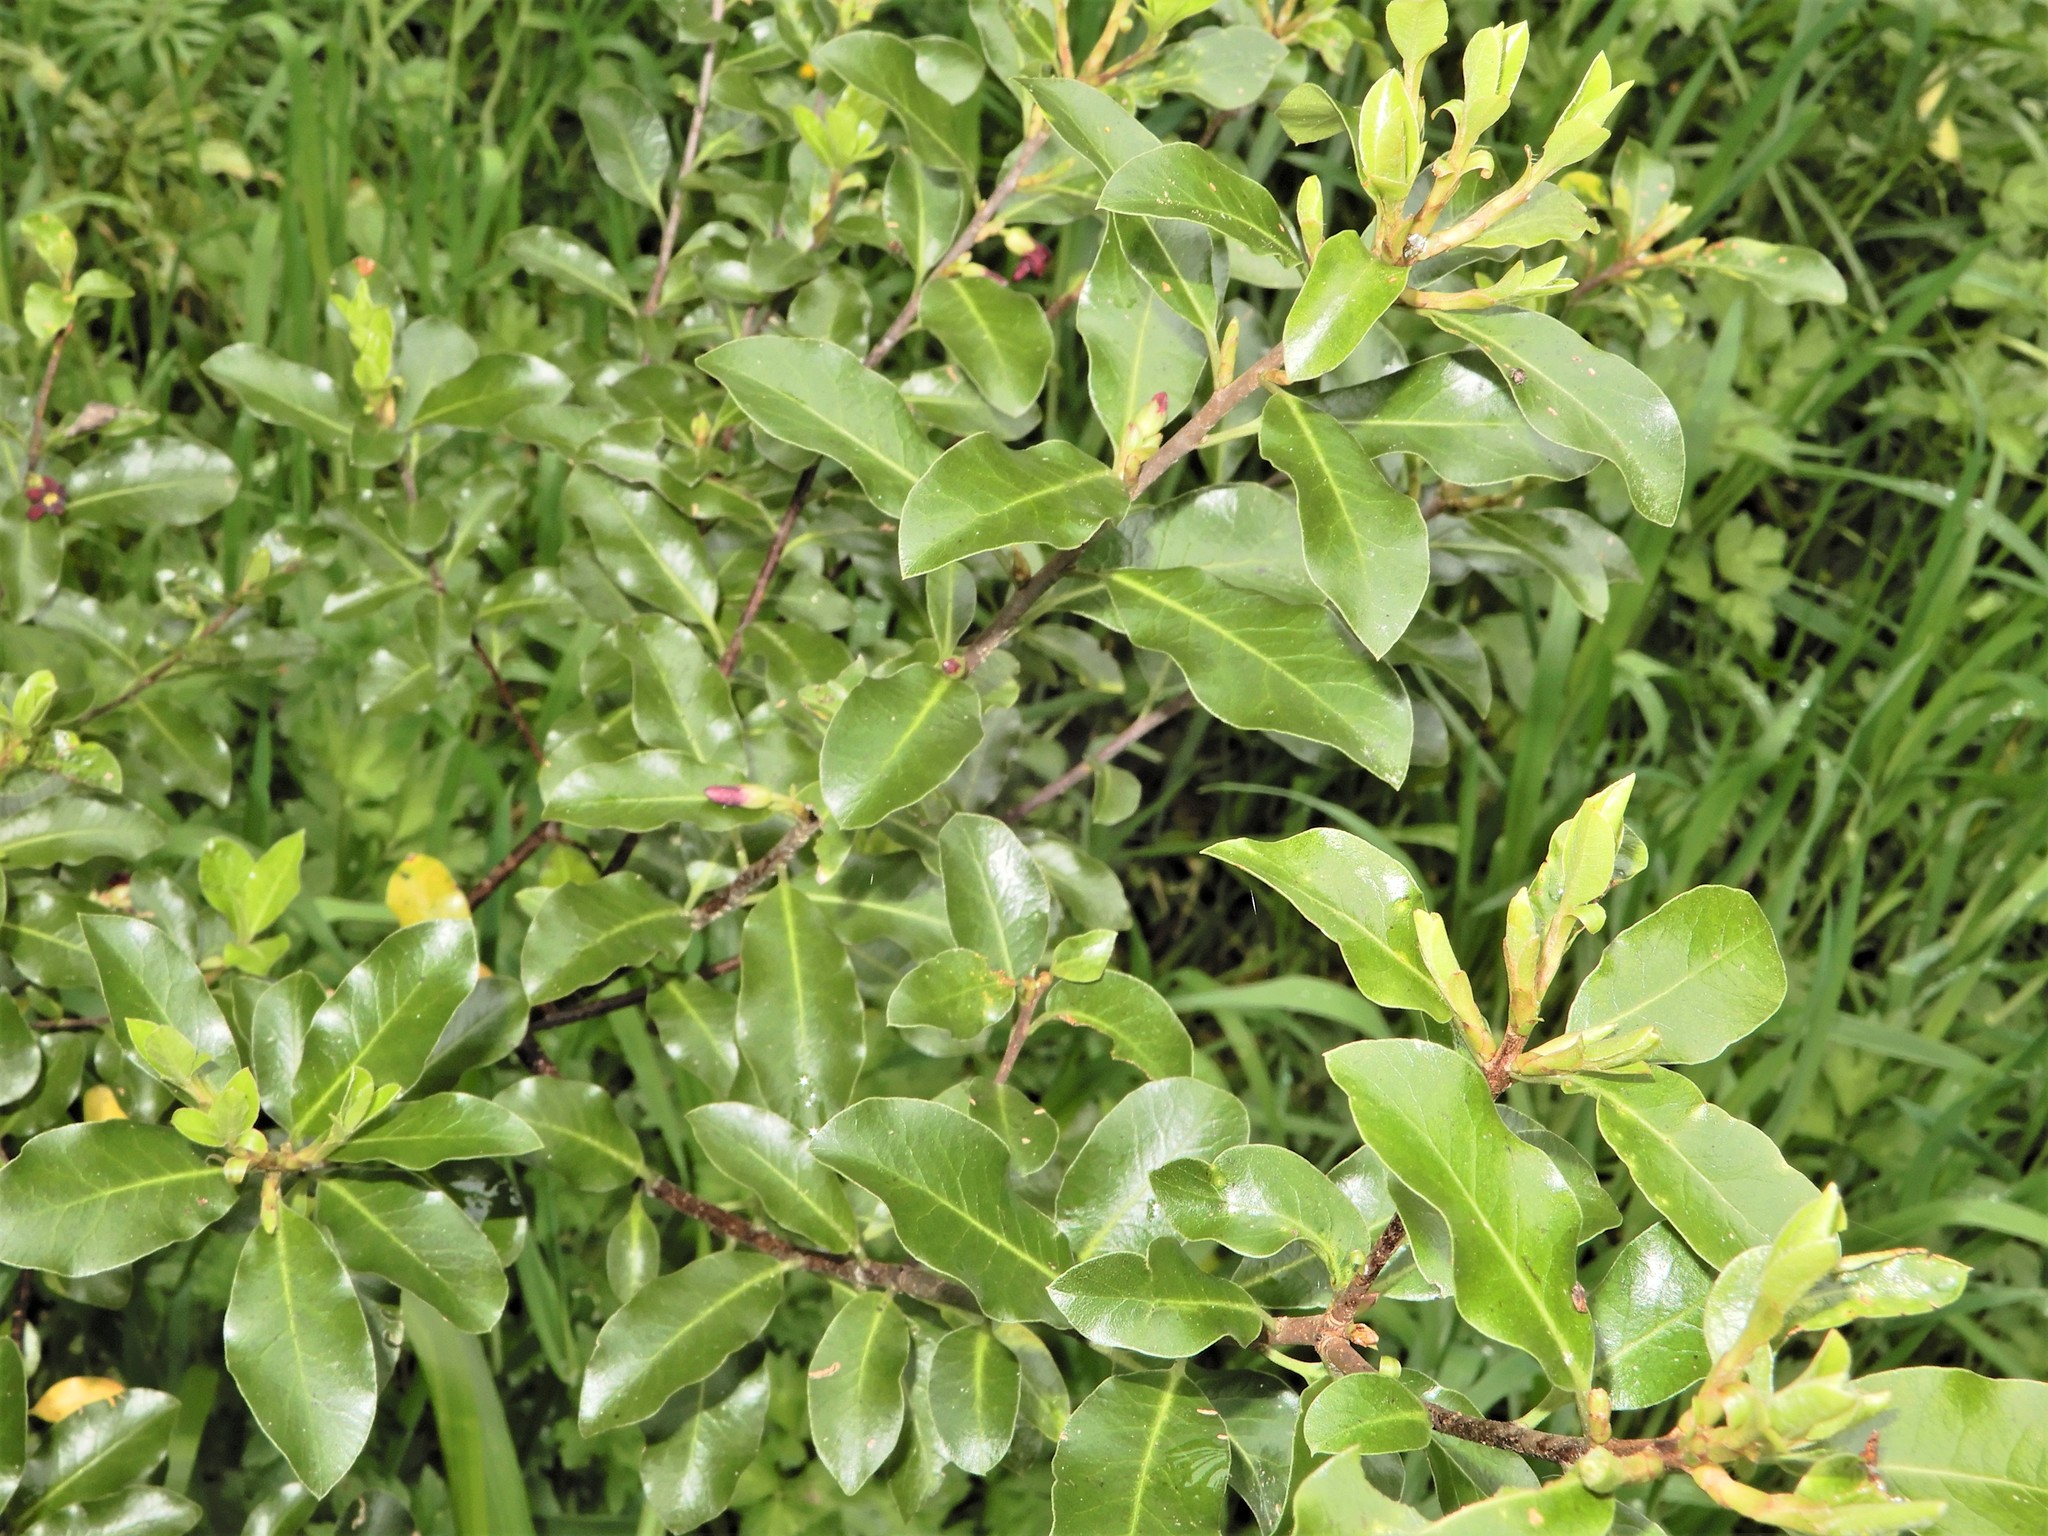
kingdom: Plantae
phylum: Tracheophyta
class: Magnoliopsida
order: Apiales
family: Pittosporaceae
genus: Pittosporum
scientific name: Pittosporum tenuifolium
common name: Kohuhu
